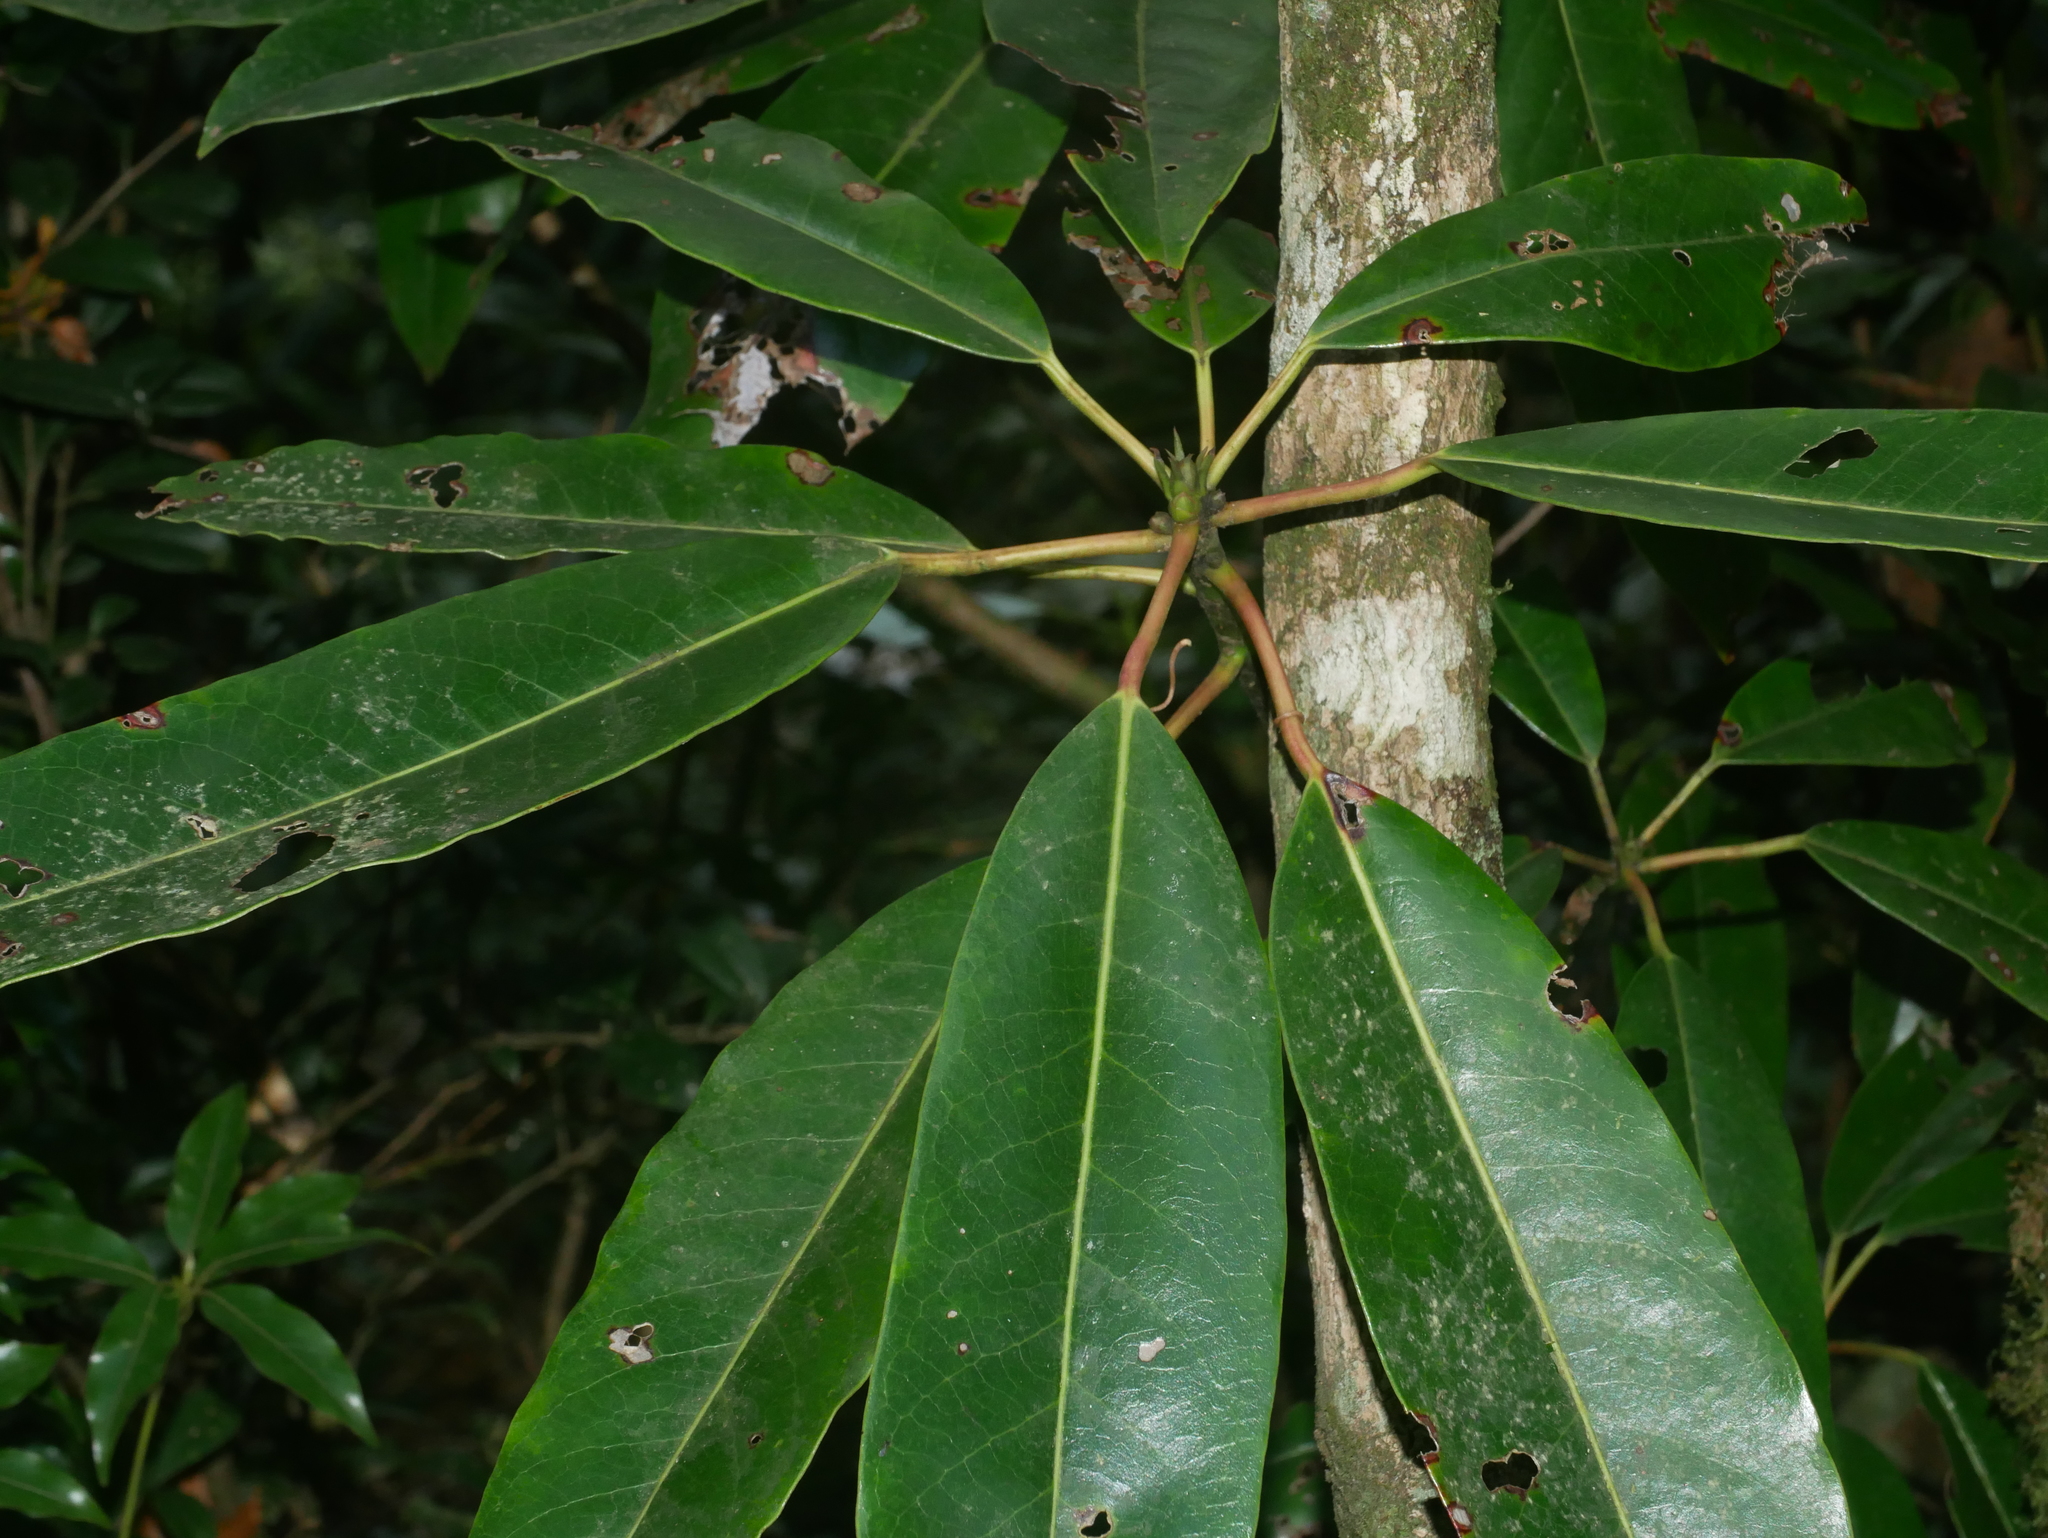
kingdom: Plantae
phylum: Tracheophyta
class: Magnoliopsida
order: Saxifragales
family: Daphniphyllaceae
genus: Daphniphyllum
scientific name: Daphniphyllum
